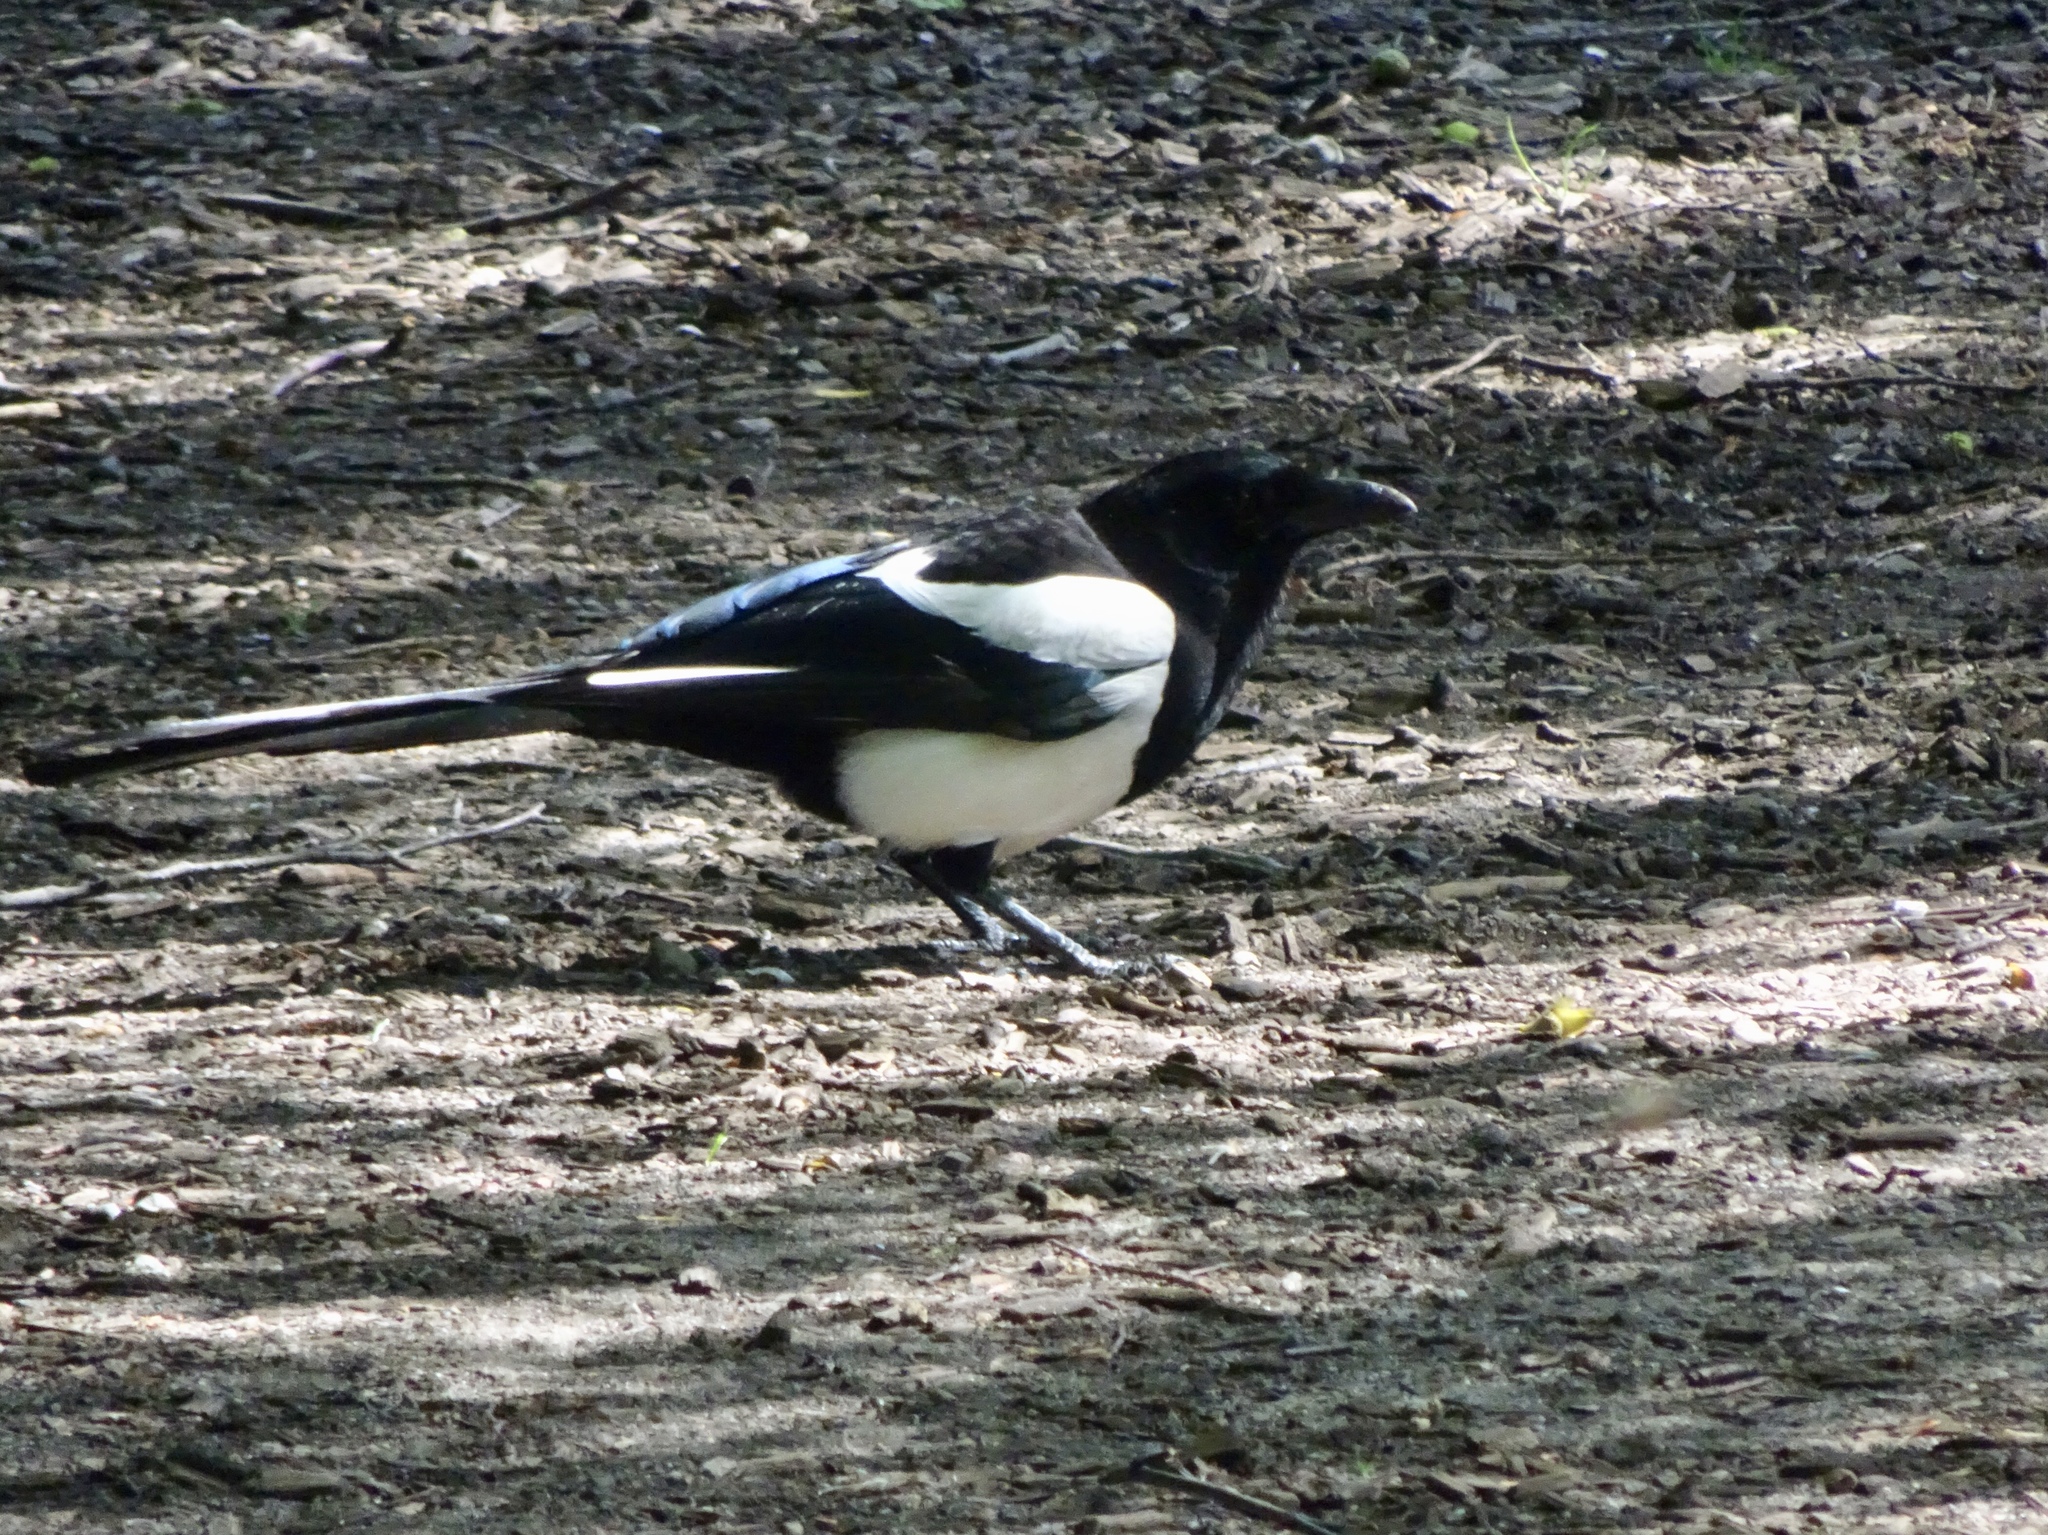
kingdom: Animalia
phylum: Chordata
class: Aves
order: Passeriformes
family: Corvidae
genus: Pica
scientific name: Pica pica
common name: Eurasian magpie
